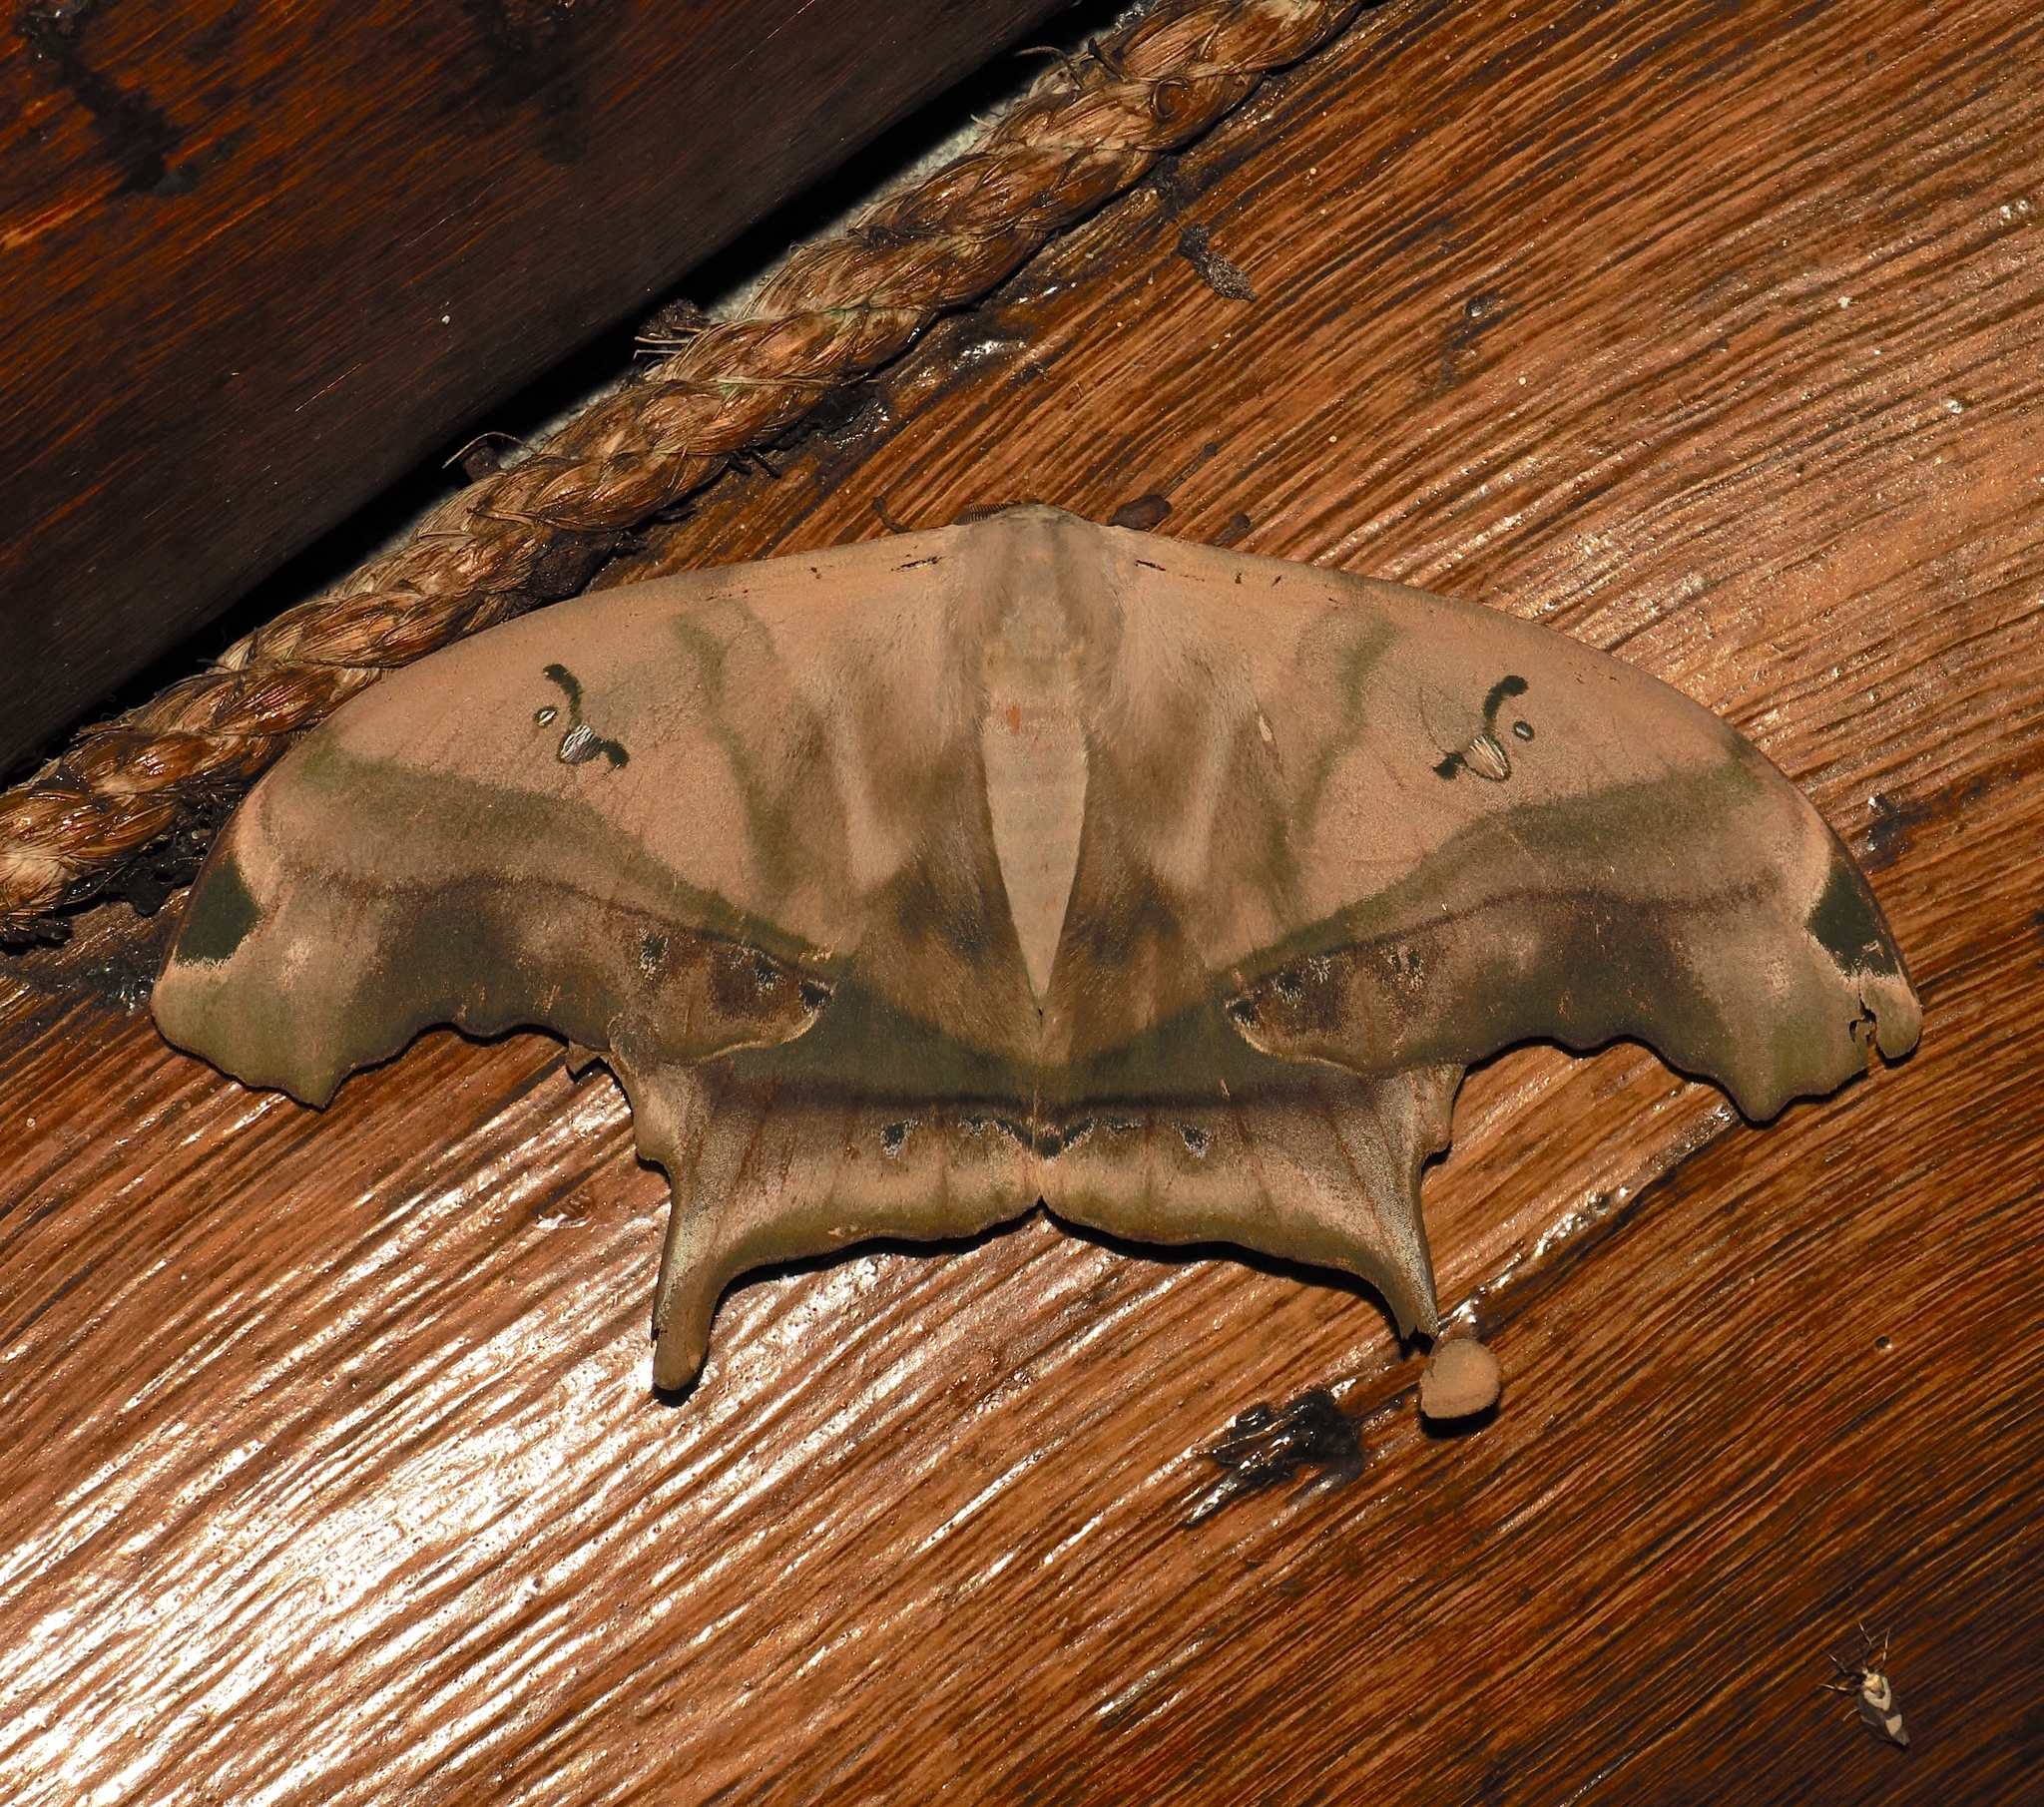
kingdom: Animalia
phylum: Arthropoda
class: Insecta
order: Lepidoptera
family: Saturniidae
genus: Titaea
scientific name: Titaea tamerlan
